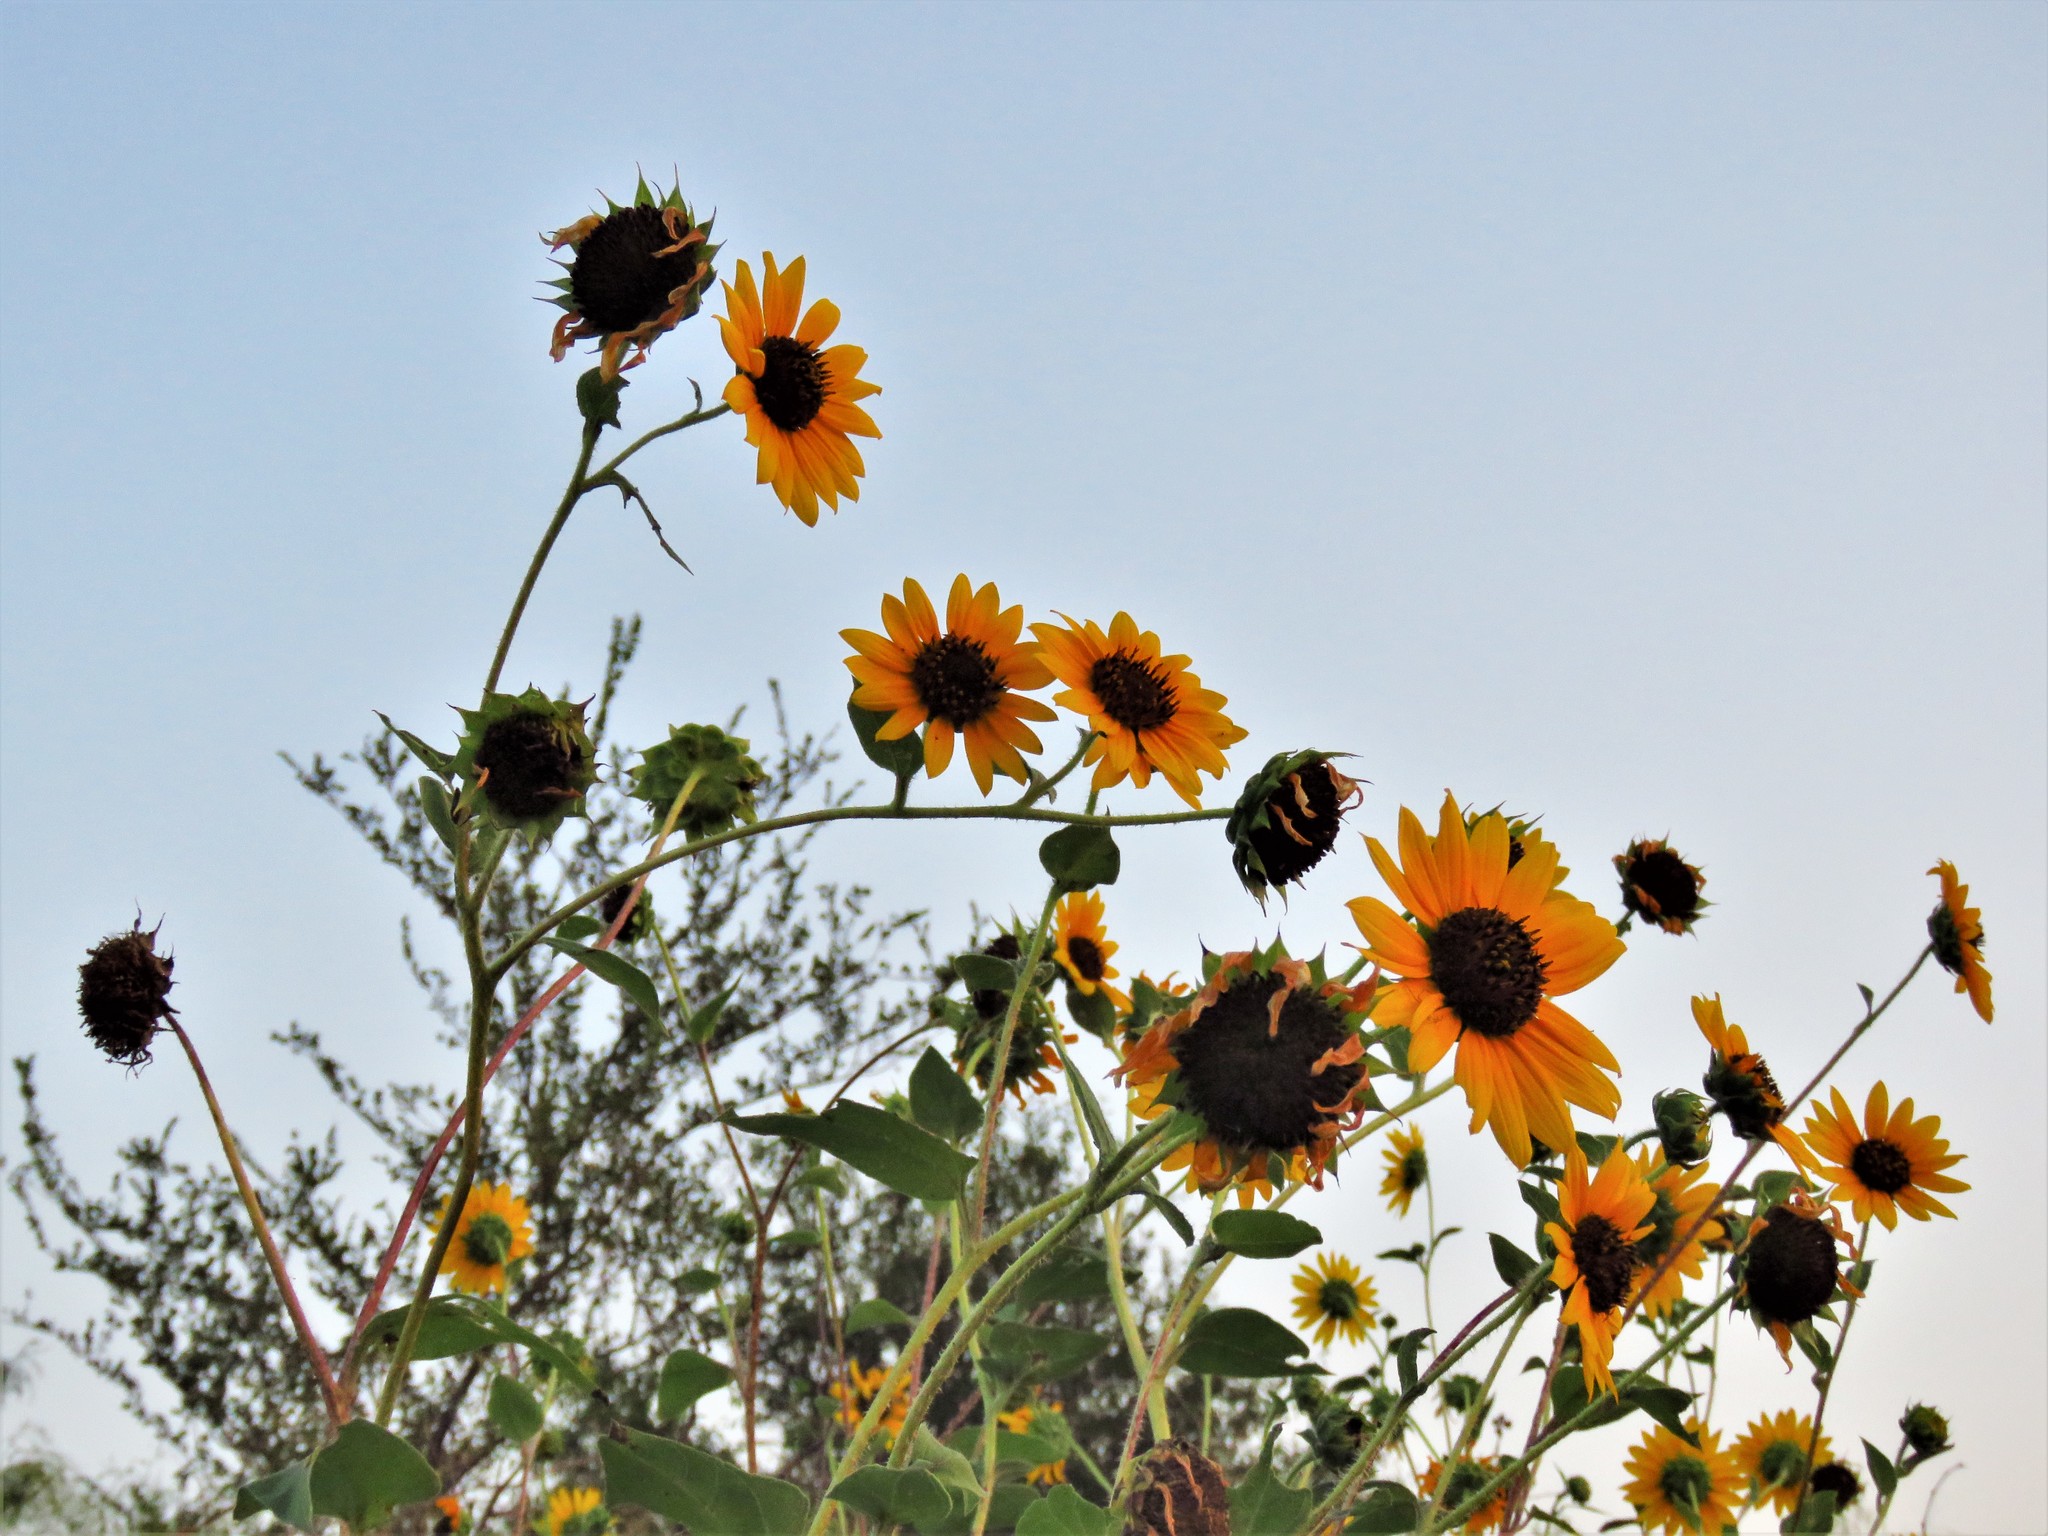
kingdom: Plantae
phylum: Tracheophyta
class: Magnoliopsida
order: Asterales
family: Asteraceae
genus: Helianthus
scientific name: Helianthus annuus
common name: Sunflower
